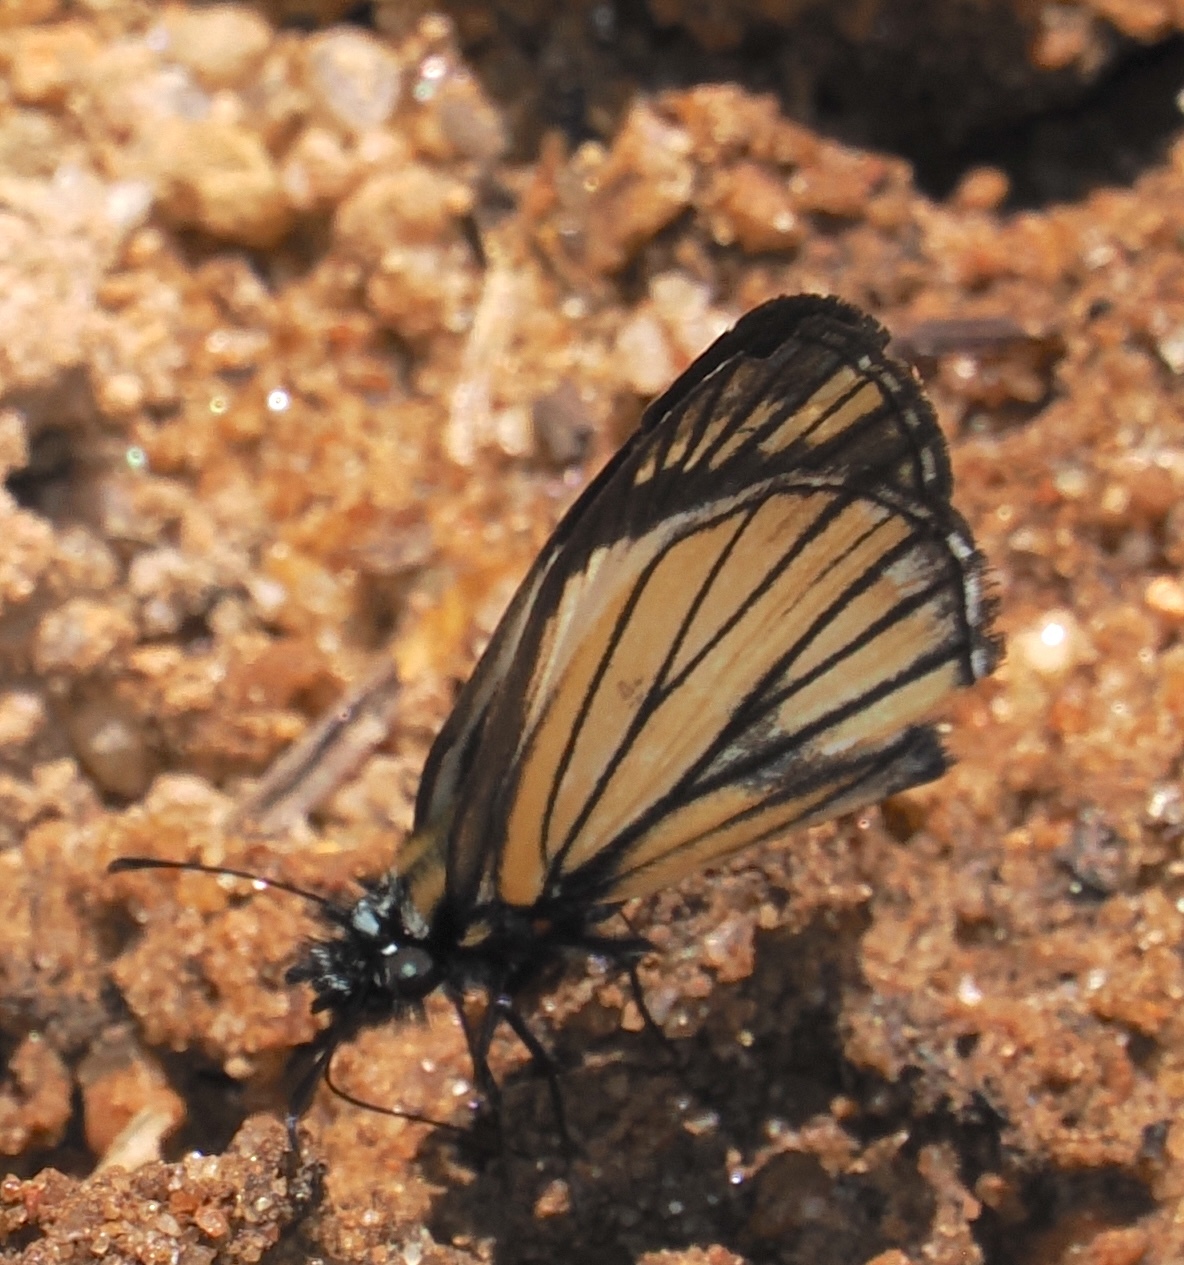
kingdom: Animalia
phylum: Arthropoda
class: Insecta
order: Lepidoptera
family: Hesperiidae
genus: Heliopetes
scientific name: Heliopetes alana
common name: Alana white-skipper
